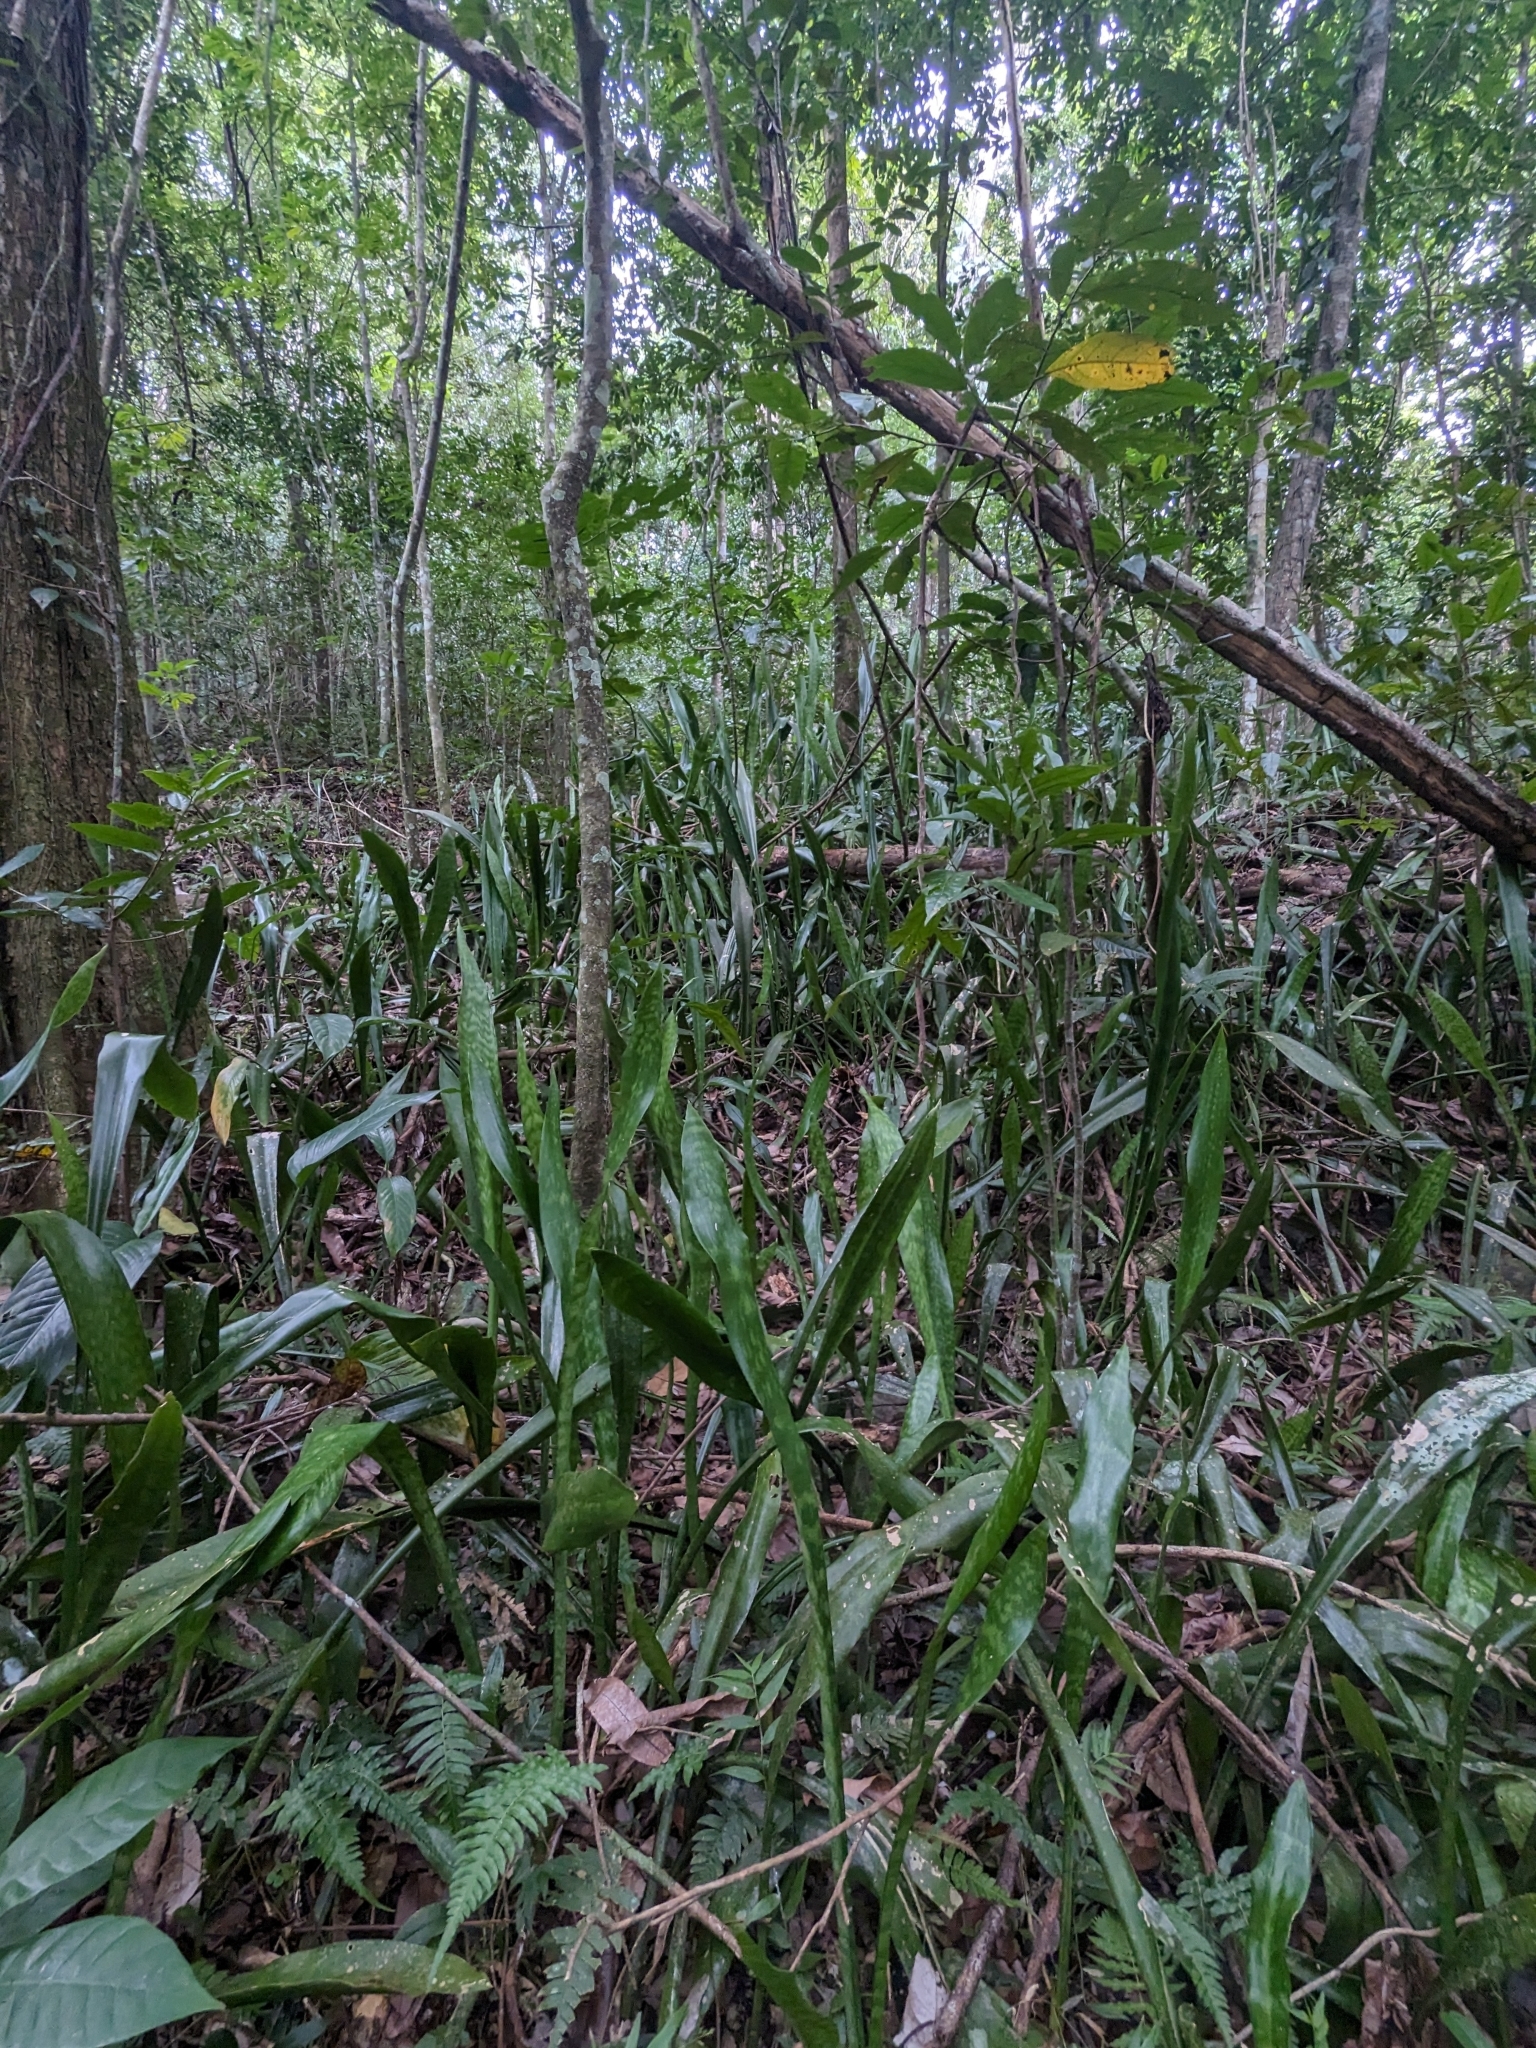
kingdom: Plantae
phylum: Tracheophyta
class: Liliopsida
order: Asparagales
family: Asparagaceae
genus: Dracaena
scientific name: Dracaena hyacinthoides
